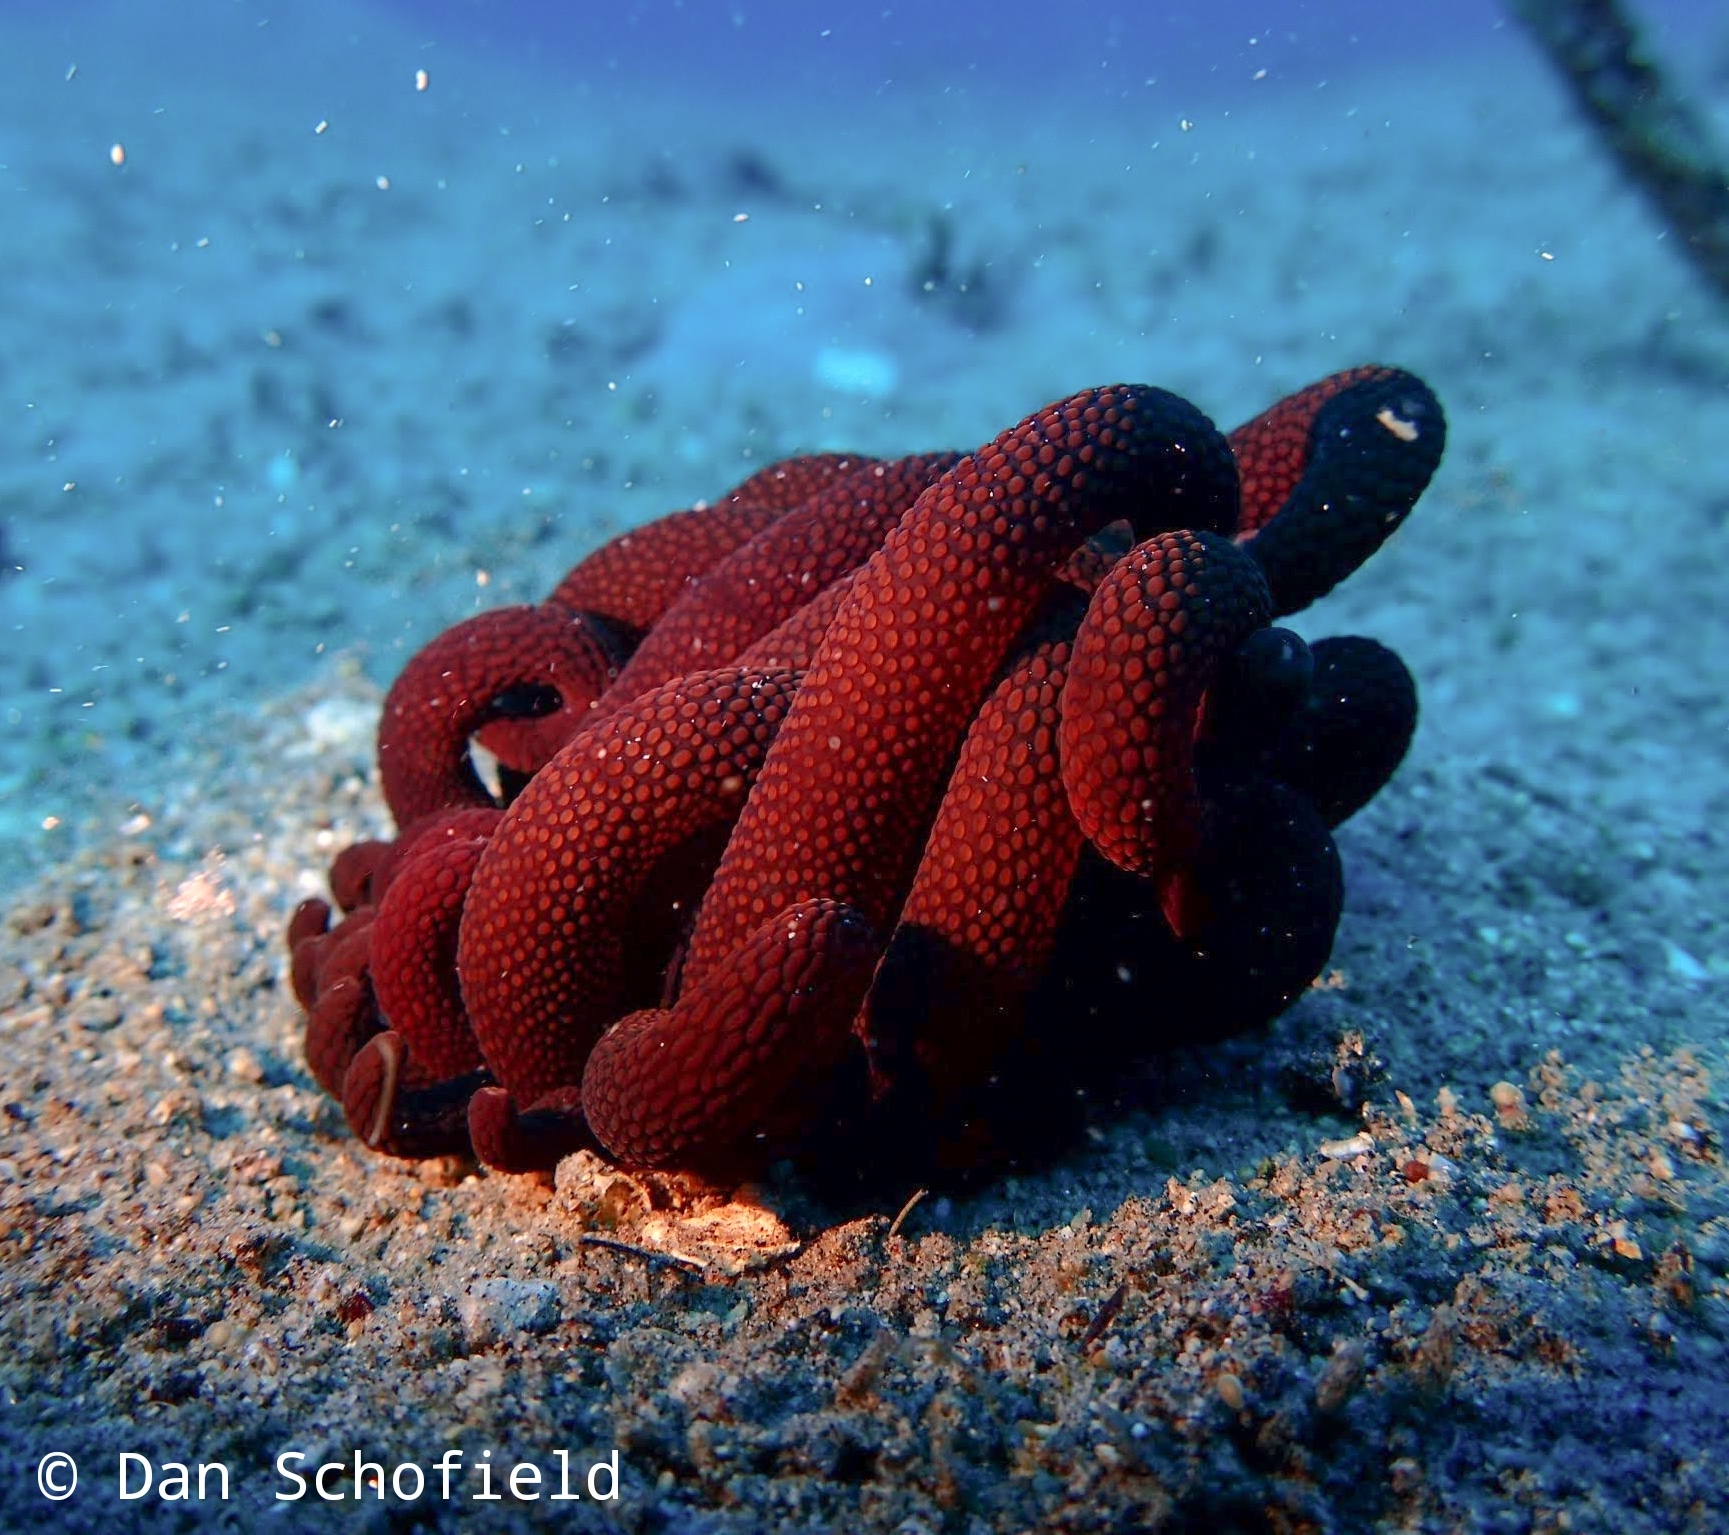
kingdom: Animalia
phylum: Cnidaria
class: Anthozoa
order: Actiniaria
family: Actiniidae
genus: Dofleinia
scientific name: Dofleinia armata
